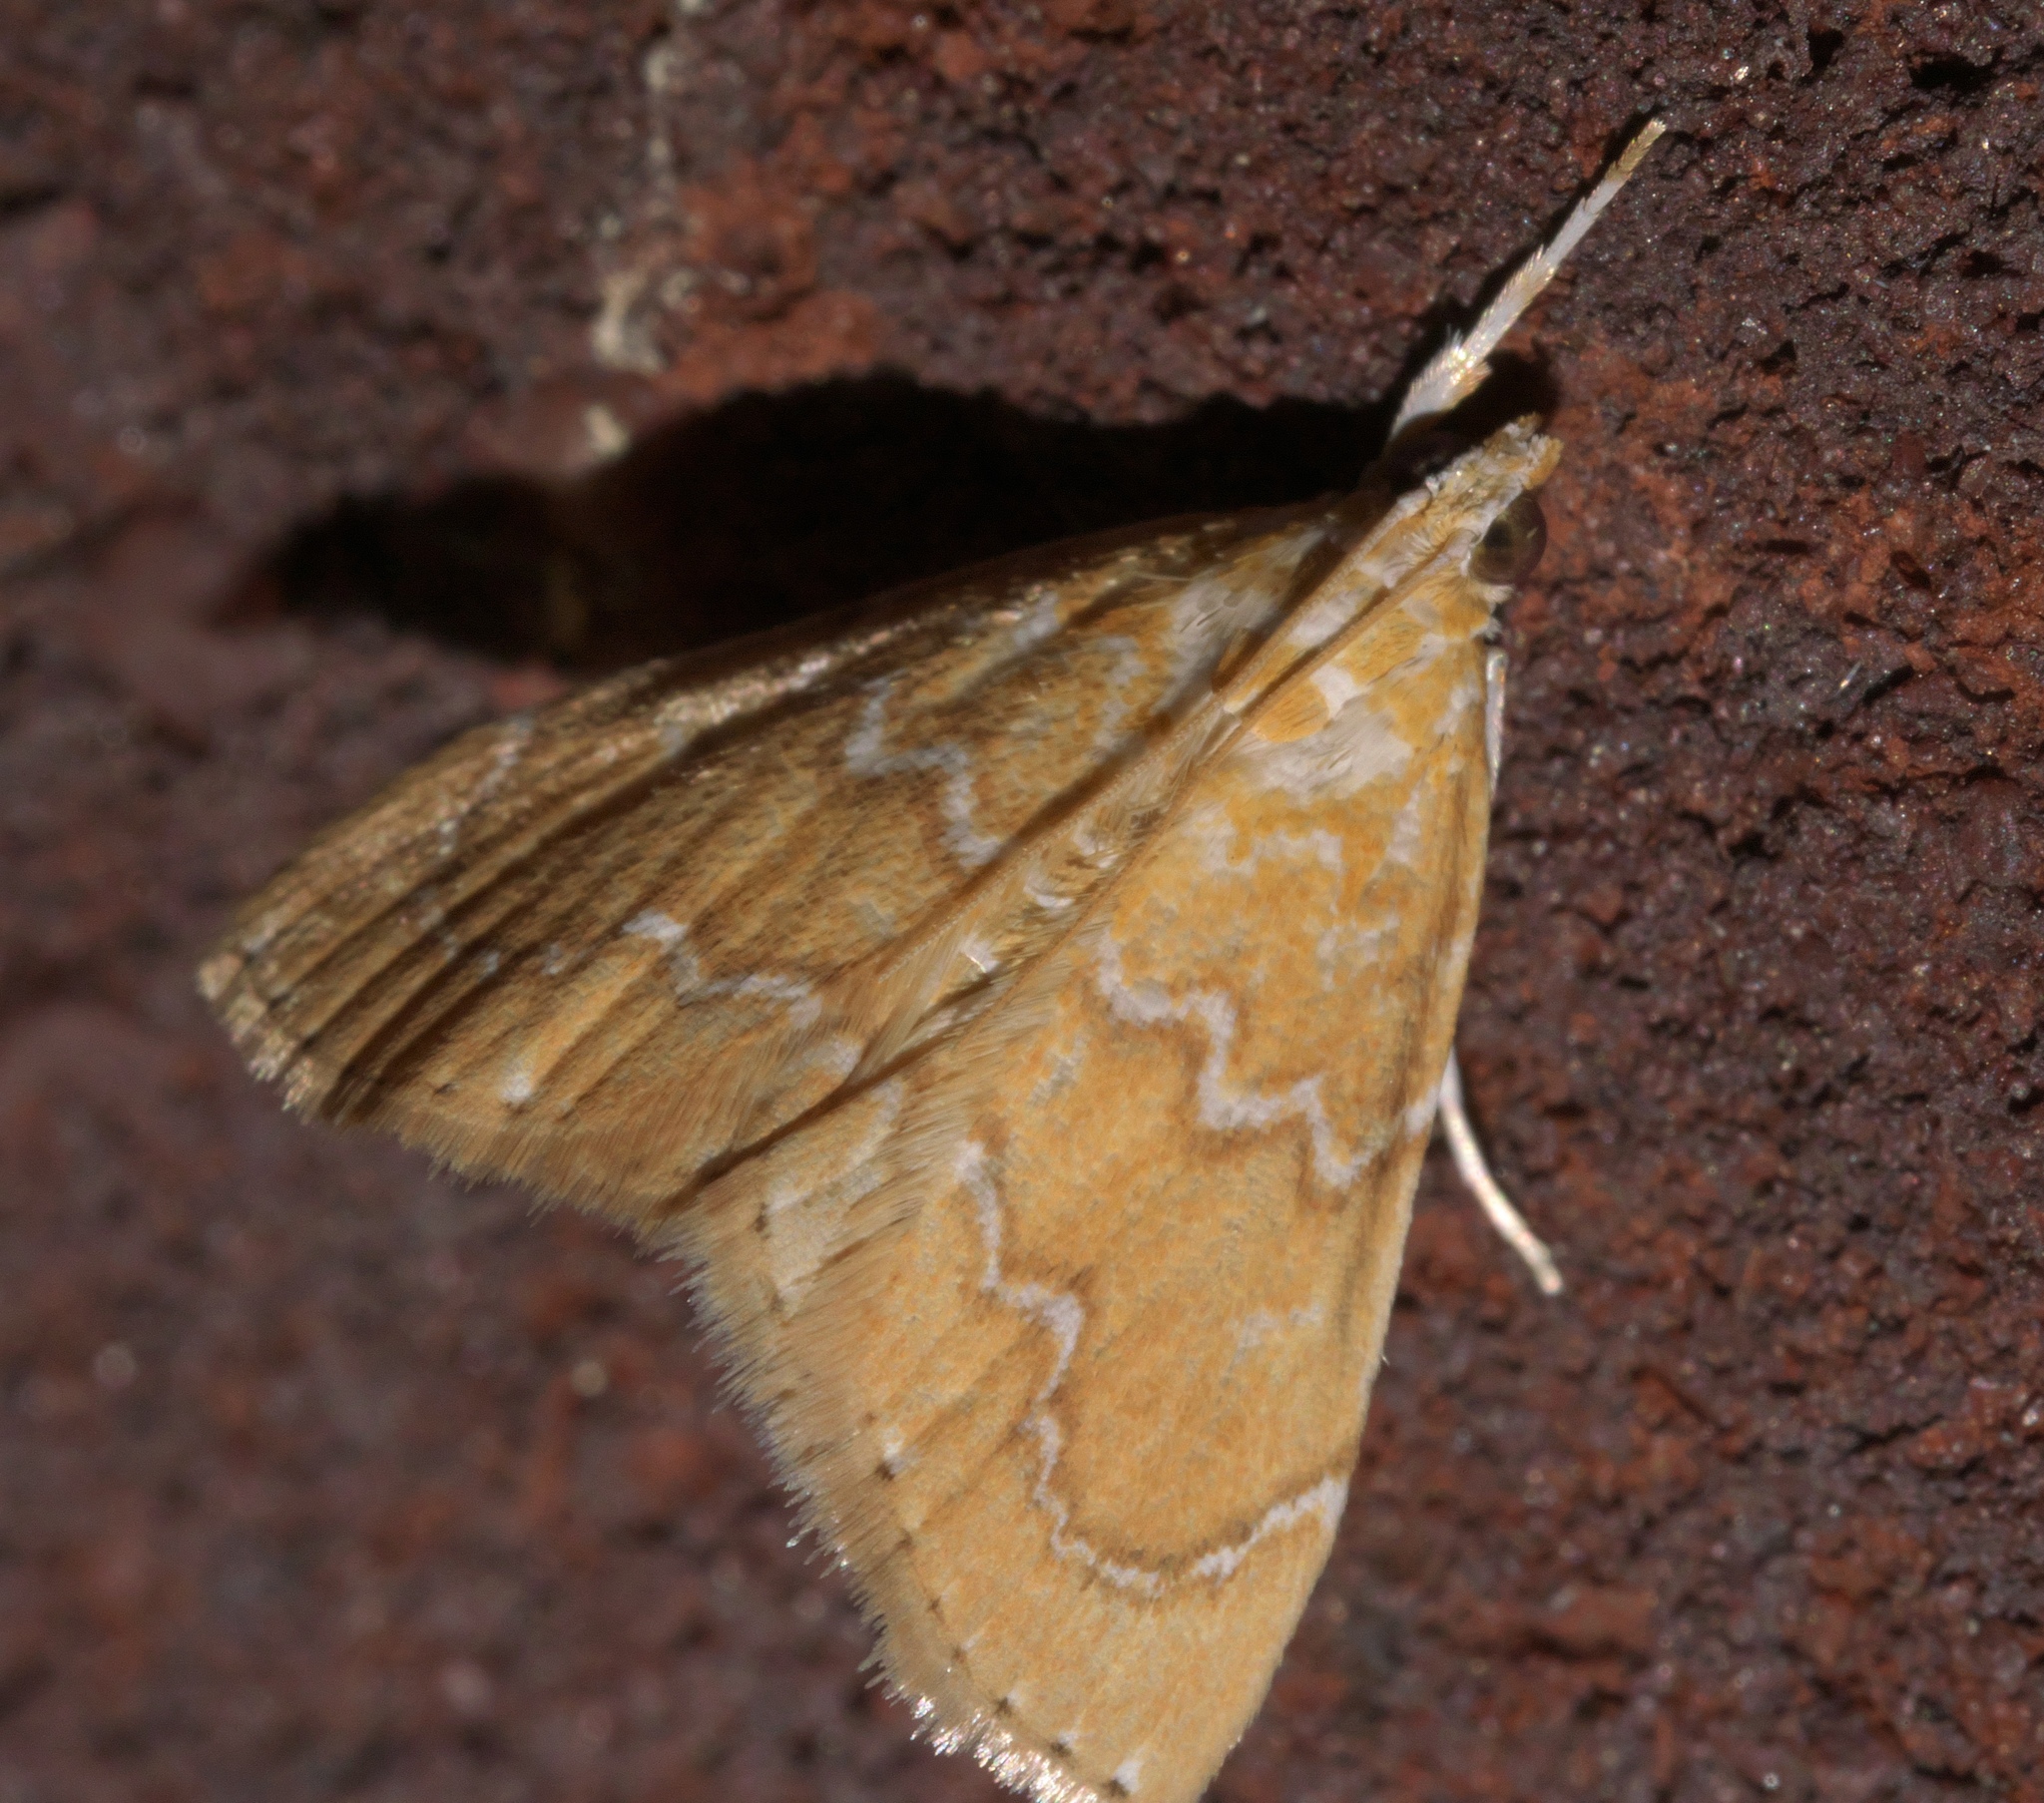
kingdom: Animalia
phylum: Arthropoda
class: Insecta
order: Lepidoptera
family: Crambidae
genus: Glaphyria
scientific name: Glaphyria sesquistrialis
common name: White-roped glaphyria
